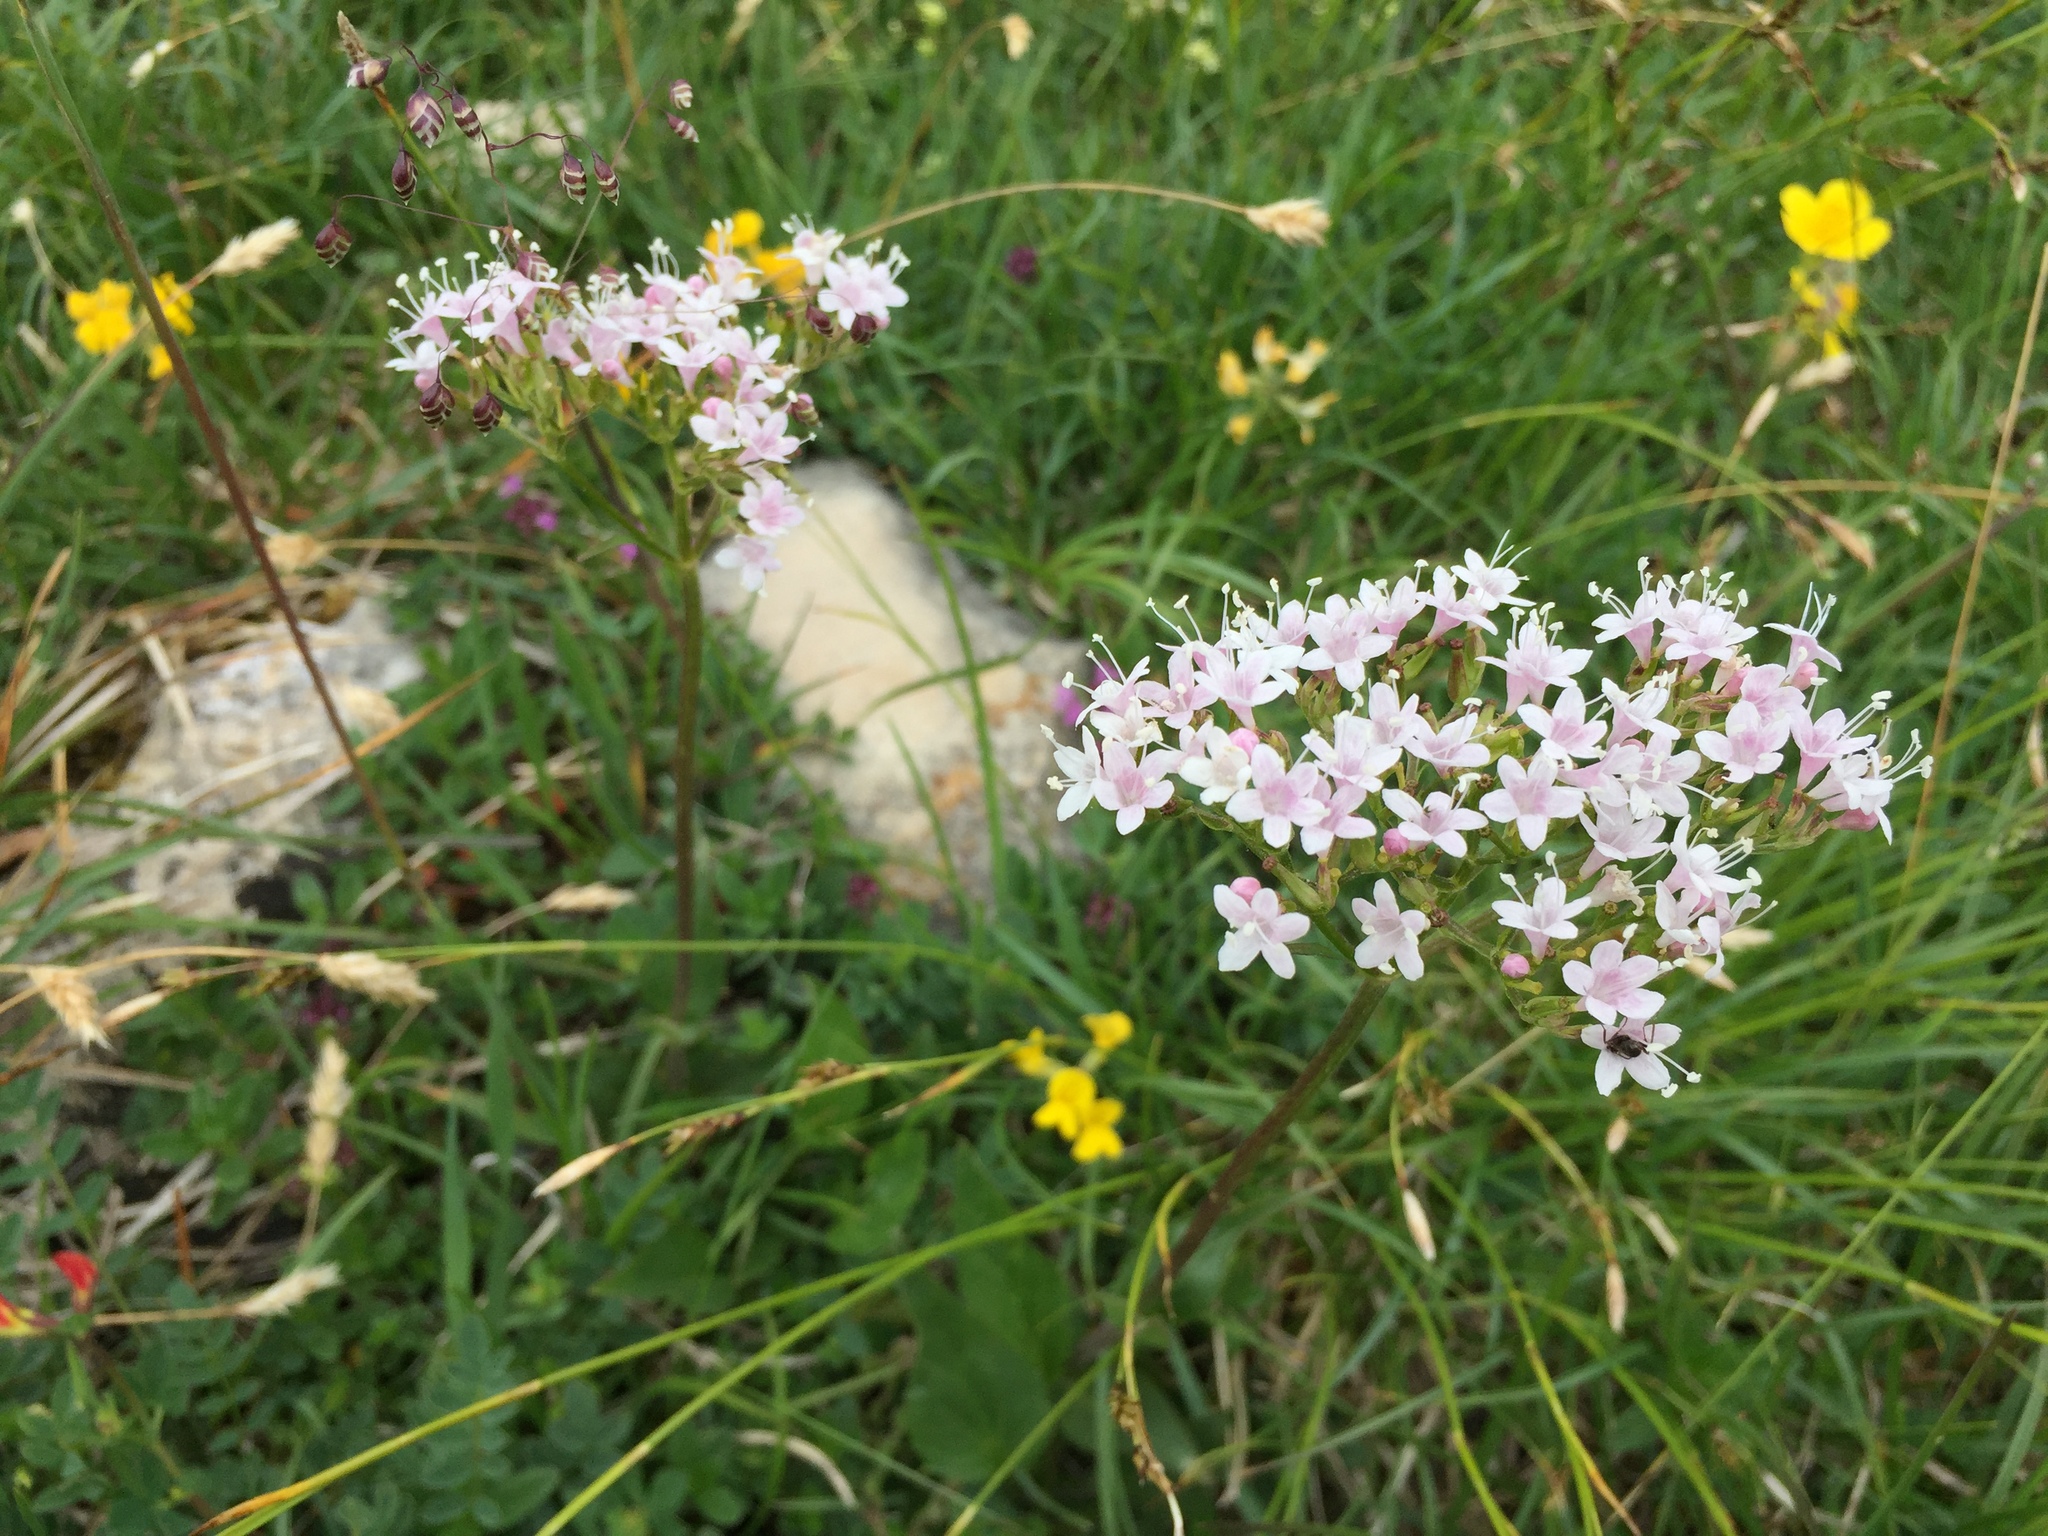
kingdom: Plantae
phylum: Tracheophyta
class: Magnoliopsida
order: Dipsacales
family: Caprifoliaceae
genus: Valeriana
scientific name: Valeriana montana
